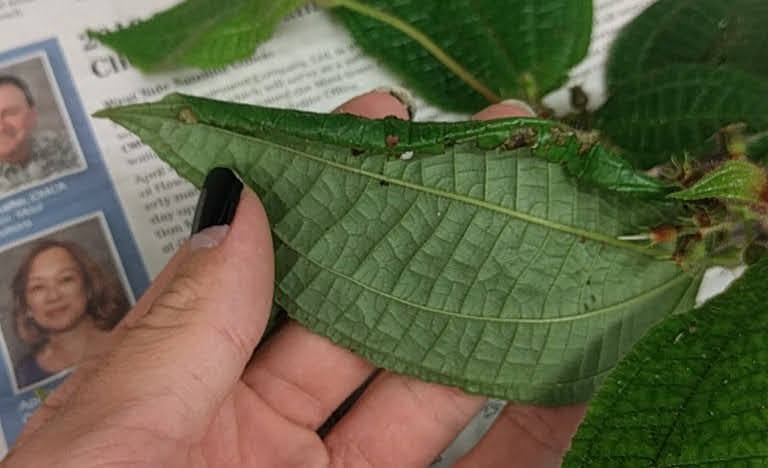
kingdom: Animalia
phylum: Arthropoda
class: Insecta
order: Lepidoptera
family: Crambidae
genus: Ategumia
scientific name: Ategumia matutinalis
